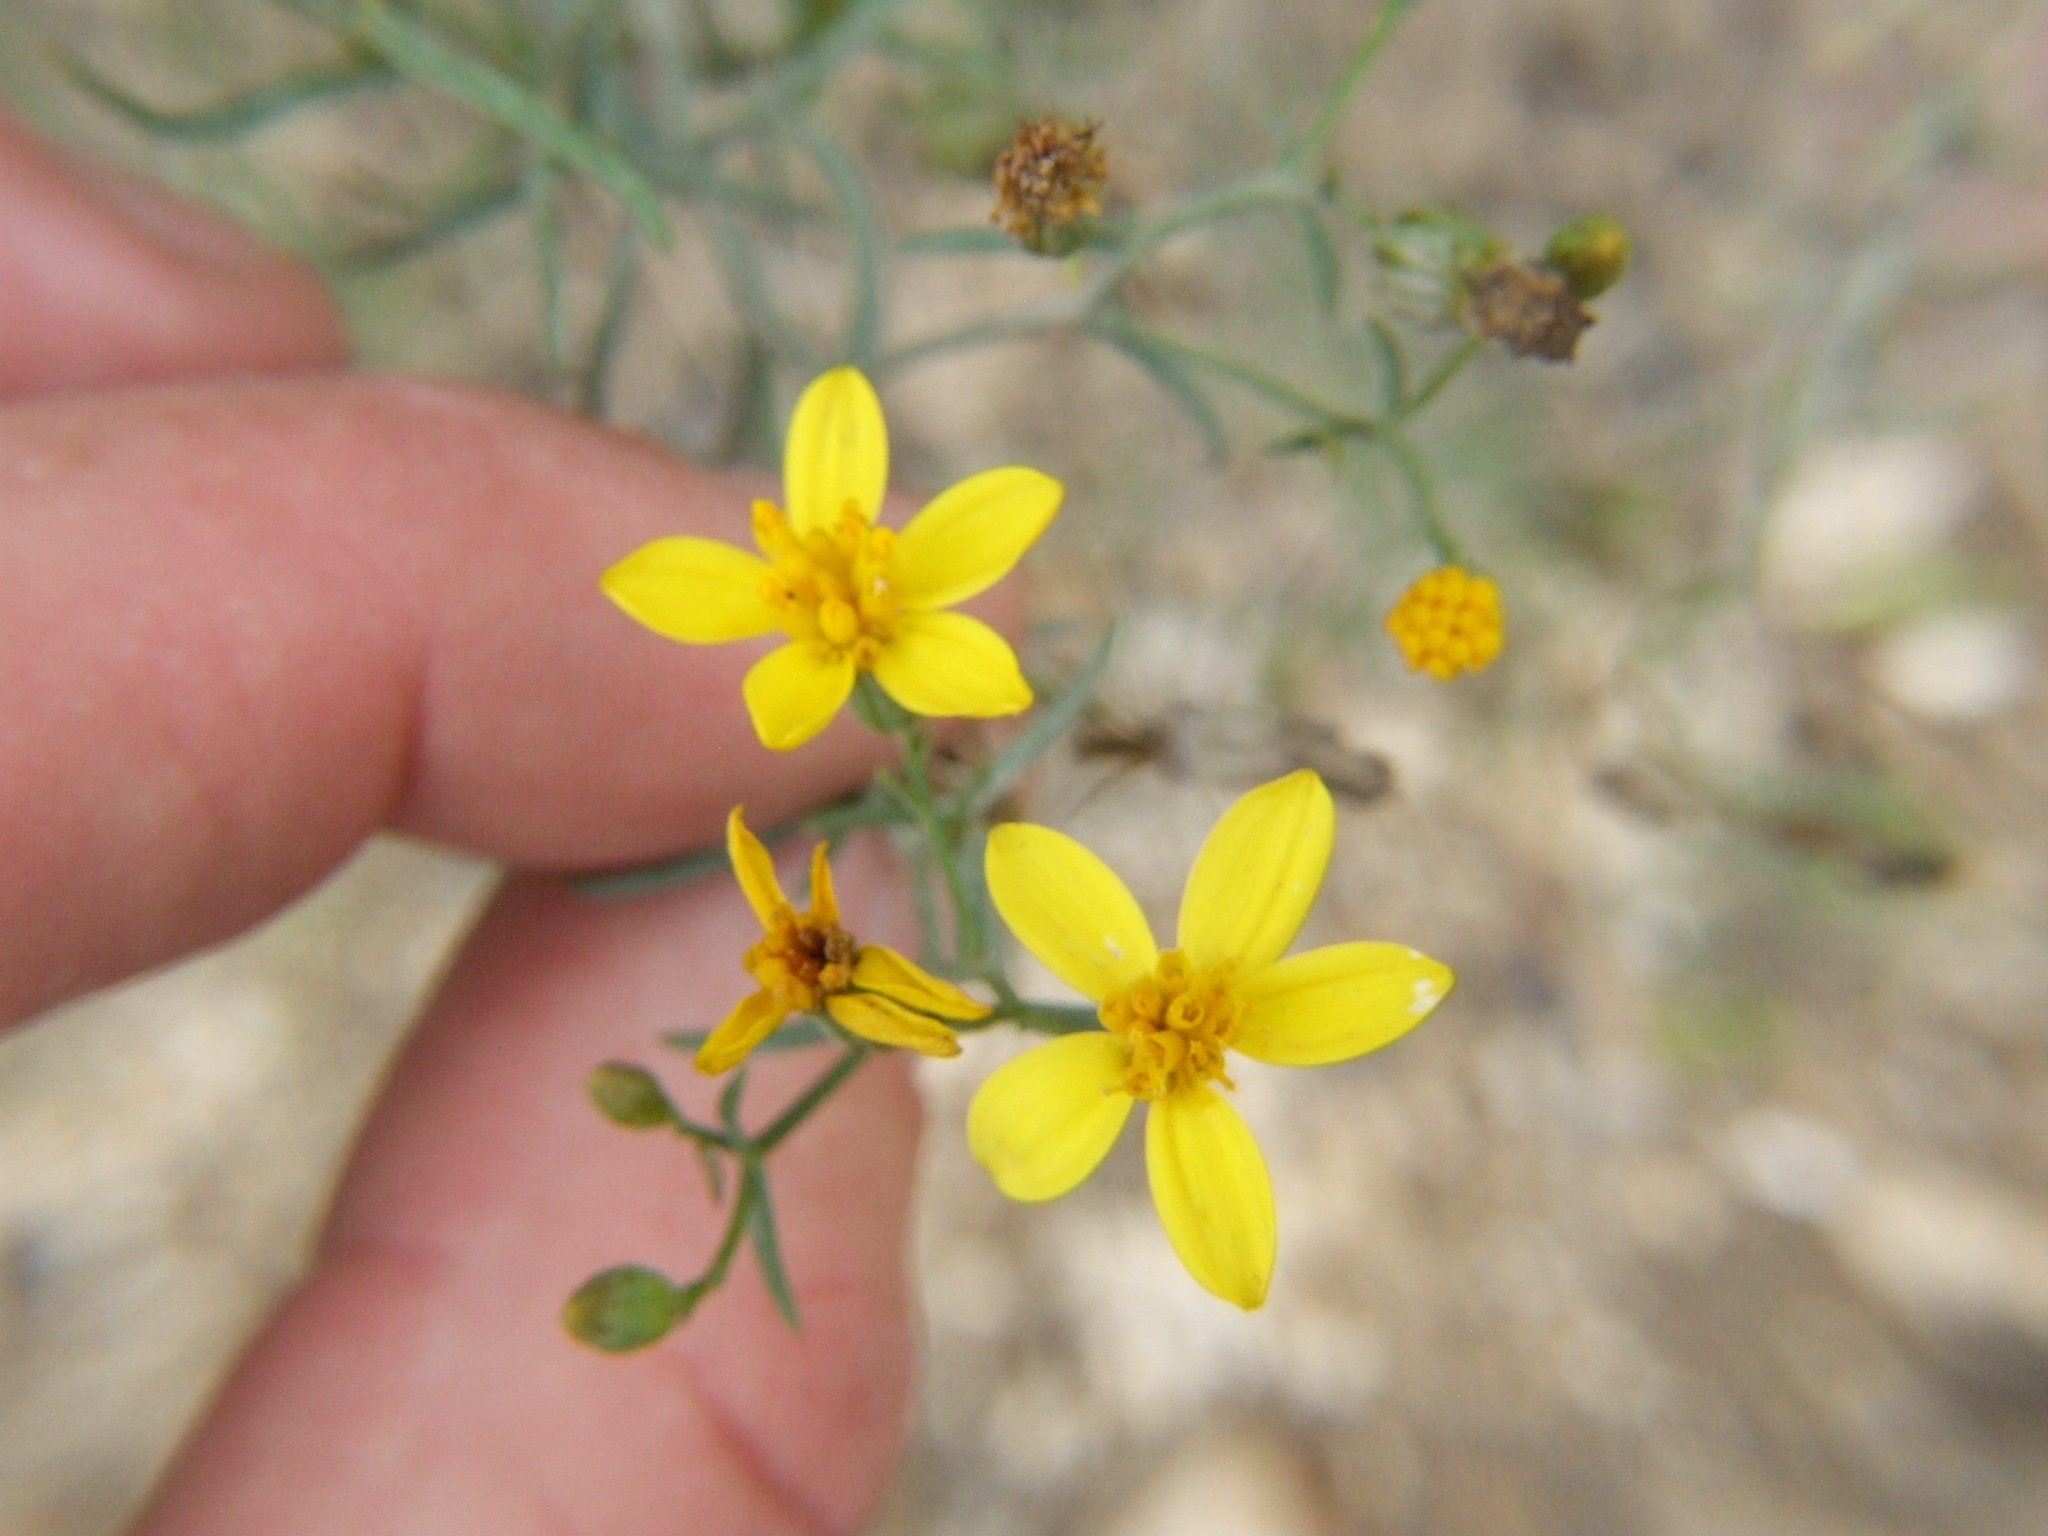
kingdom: Plantae
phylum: Tracheophyta
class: Magnoliopsida
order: Asterales
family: Asteraceae
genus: Senecio
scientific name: Senecio yurensis
